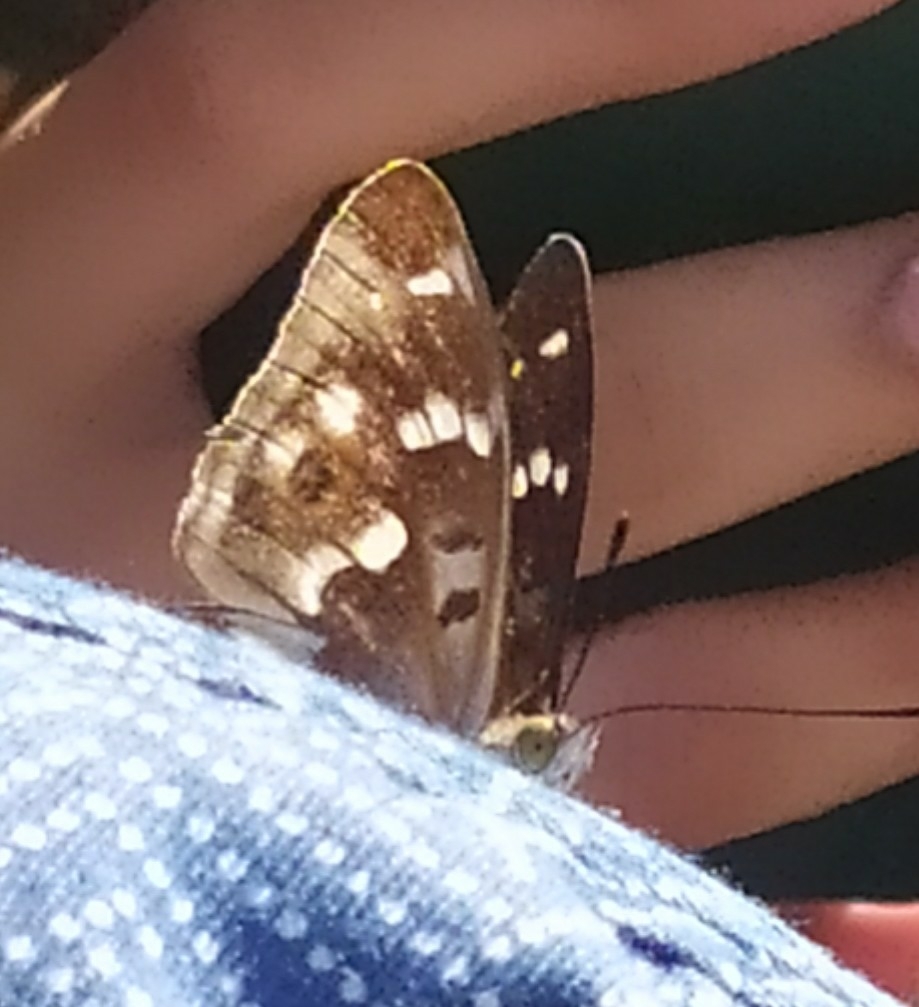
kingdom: Animalia
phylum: Arthropoda
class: Insecta
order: Lepidoptera
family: Nymphalidae
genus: Apatura
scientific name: Apatura ilia
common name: Lesser purple emperor
